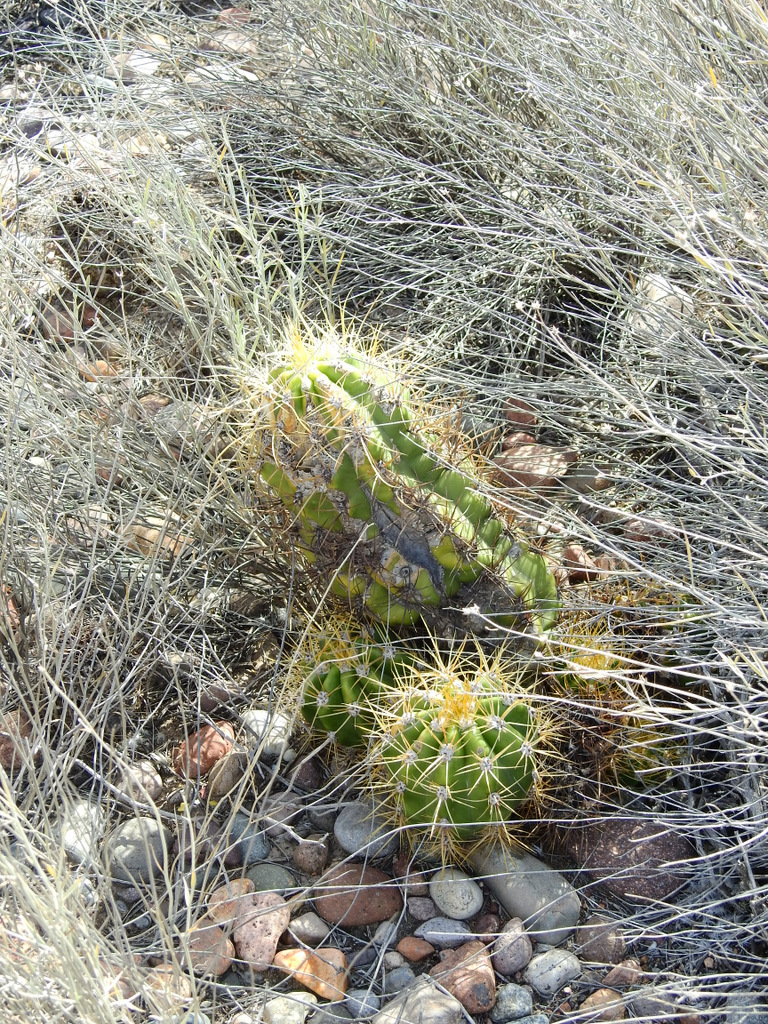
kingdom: Plantae
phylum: Tracheophyta
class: Magnoliopsida
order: Caryophyllales
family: Cactaceae
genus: Soehrensia
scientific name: Soehrensia candicans
